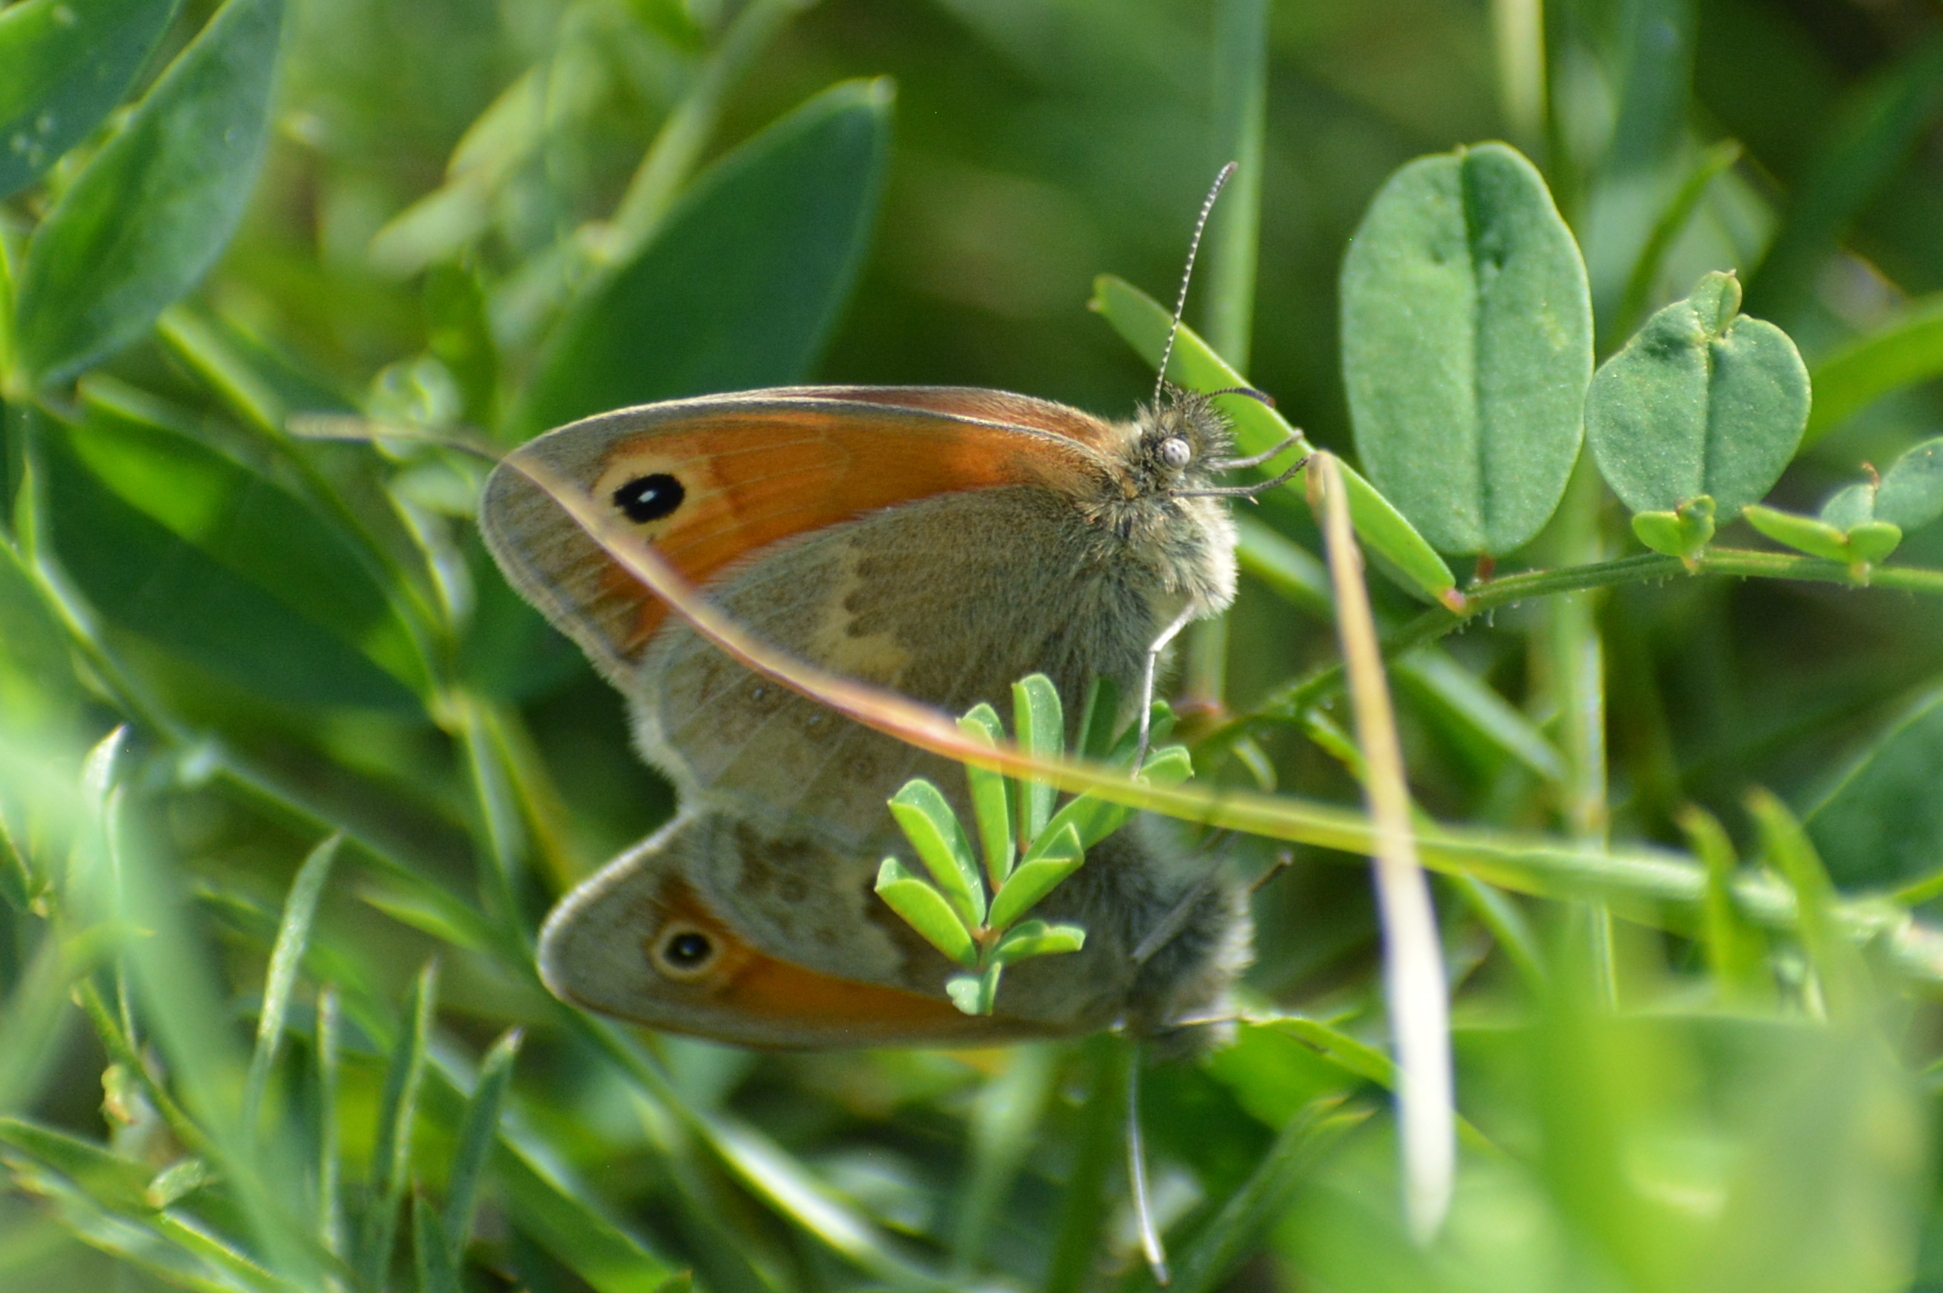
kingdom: Animalia
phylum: Arthropoda
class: Insecta
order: Lepidoptera
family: Nymphalidae
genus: Coenonympha
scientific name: Coenonympha pamphilus
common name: Small heath
